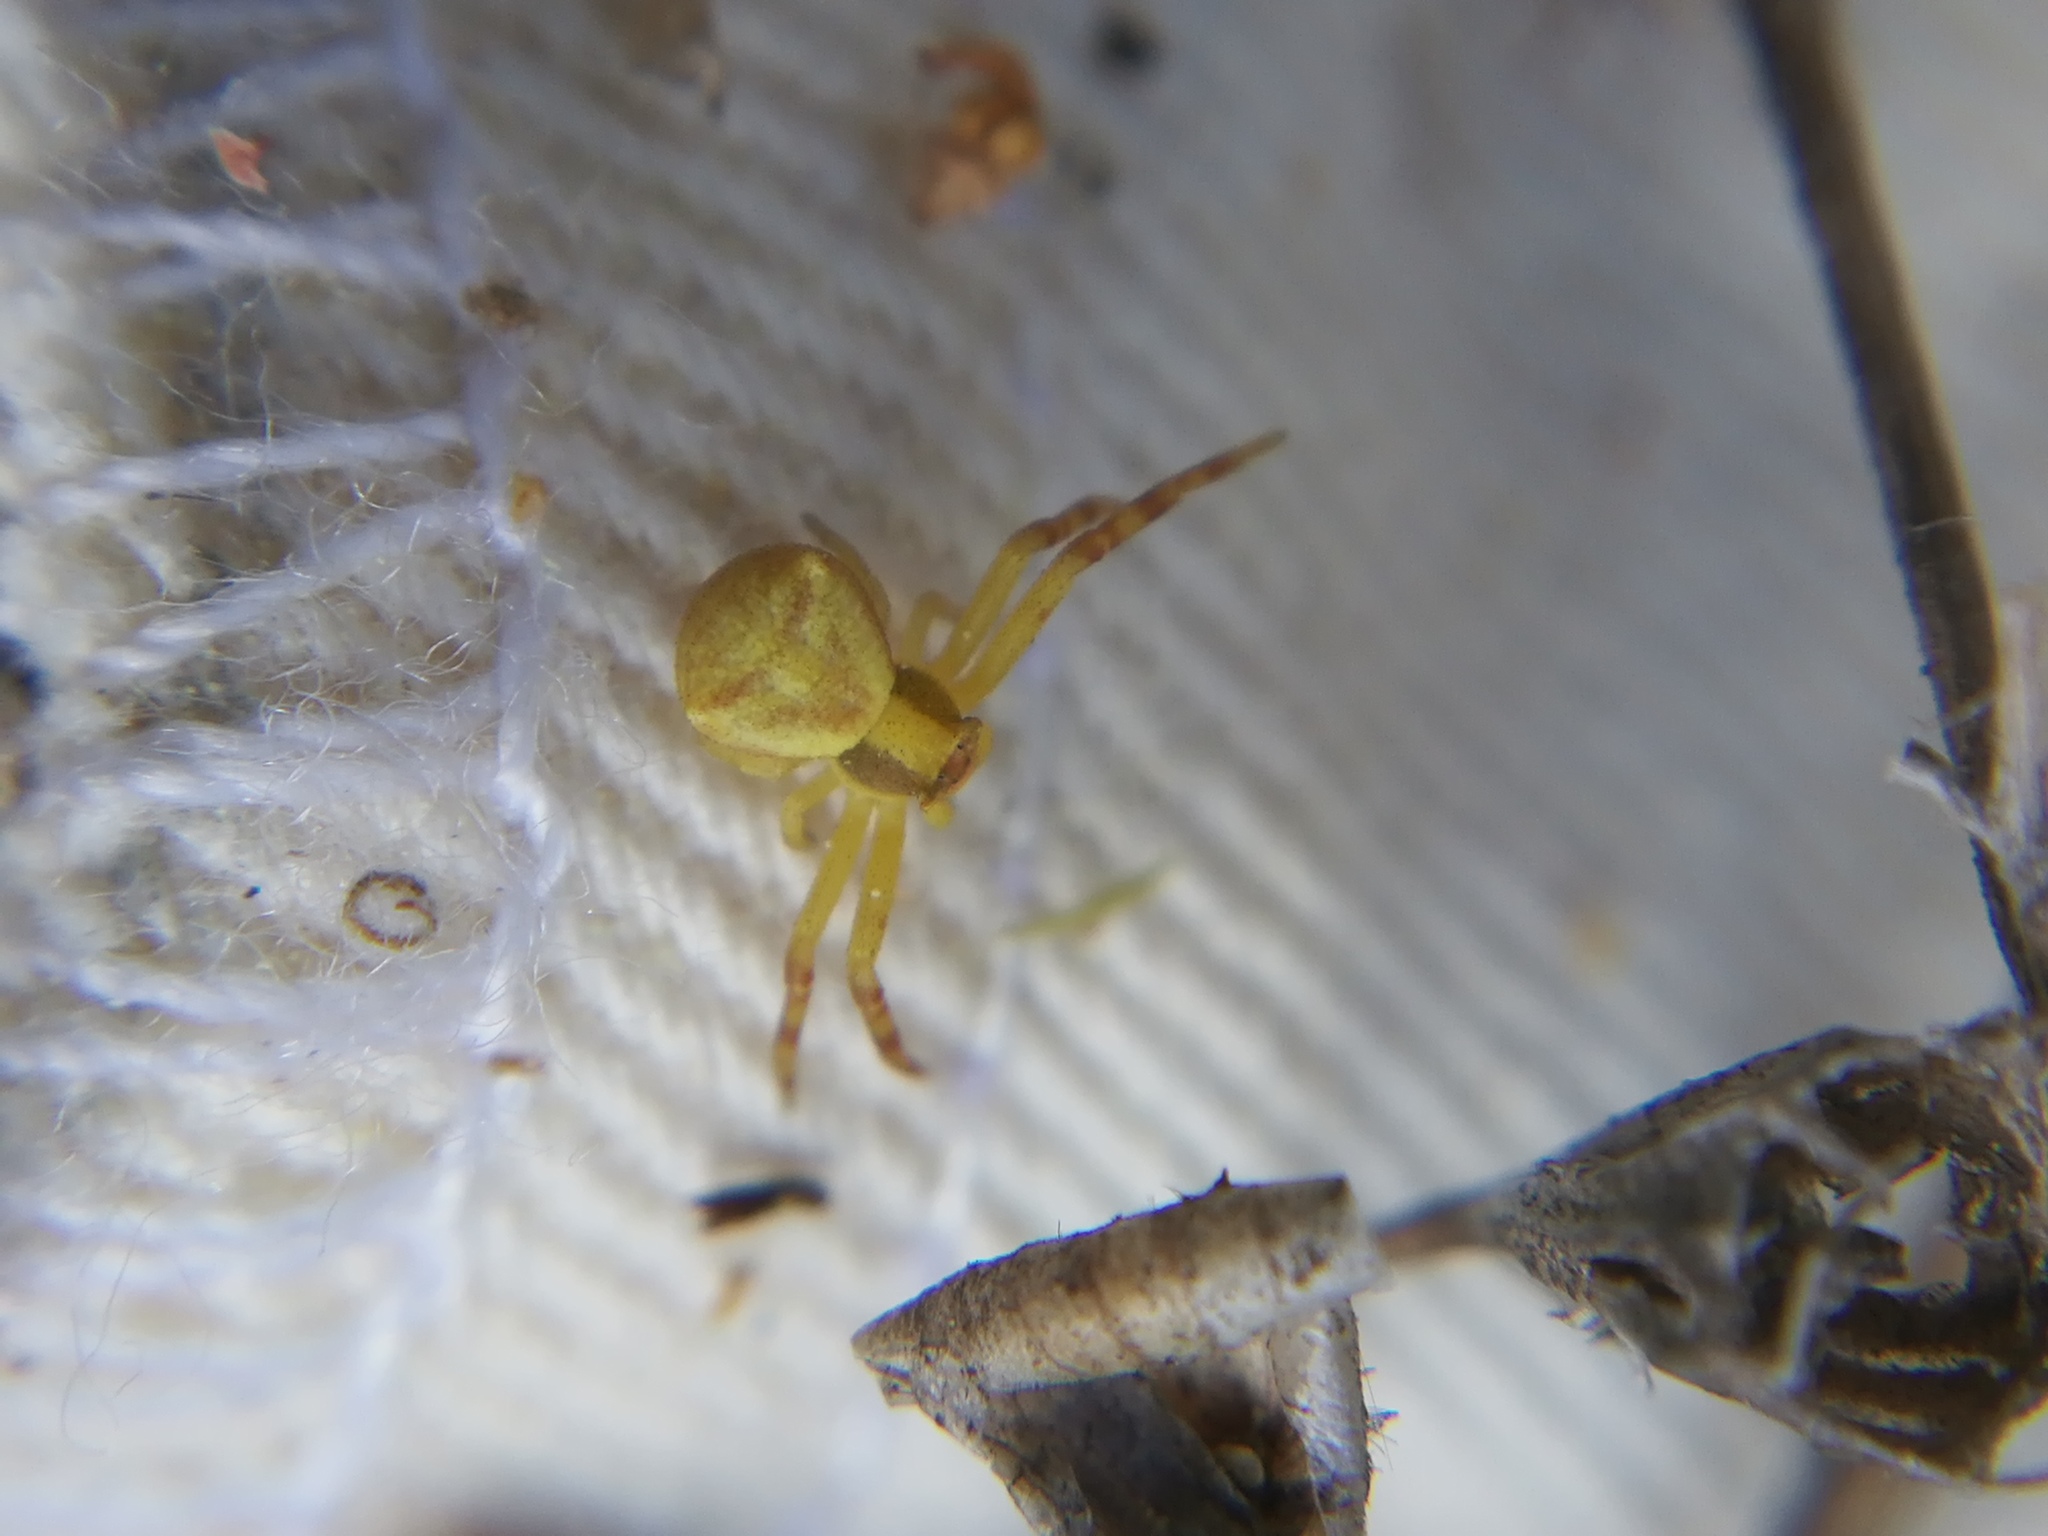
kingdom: Animalia
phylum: Arthropoda
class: Arachnida
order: Araneae
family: Thomisidae
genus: Thomisus
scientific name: Thomisus onustus
